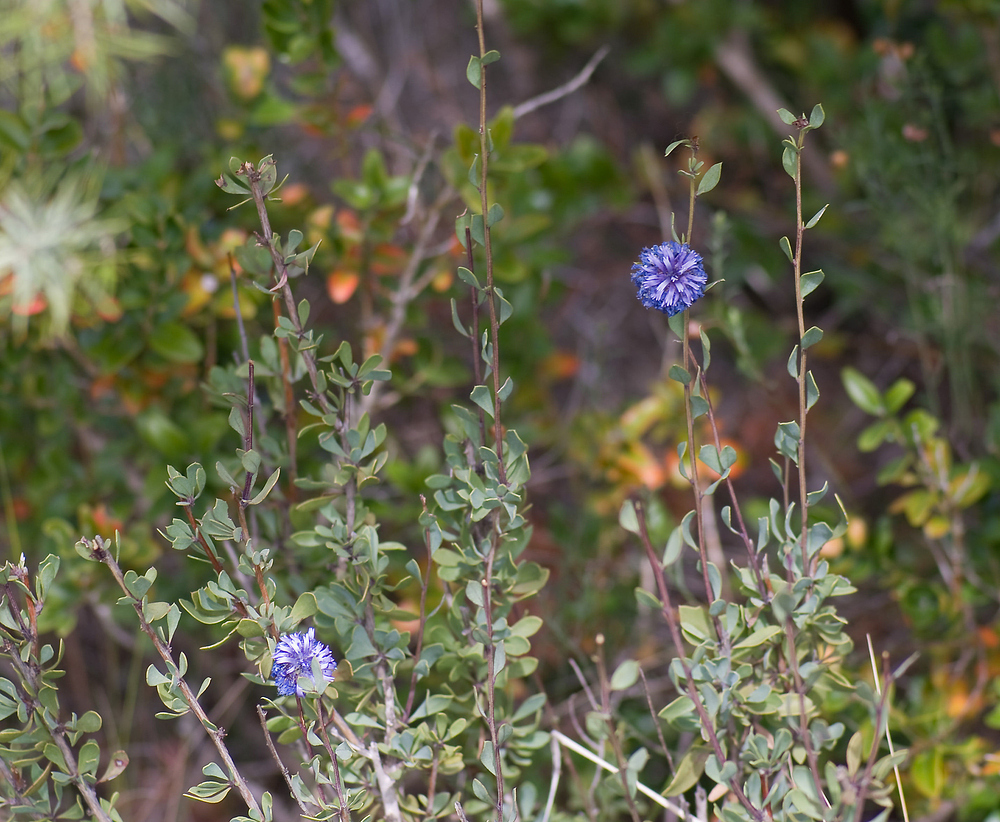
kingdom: Plantae
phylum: Tracheophyta
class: Magnoliopsida
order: Lamiales
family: Plantaginaceae
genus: Globularia
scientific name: Globularia alypum
